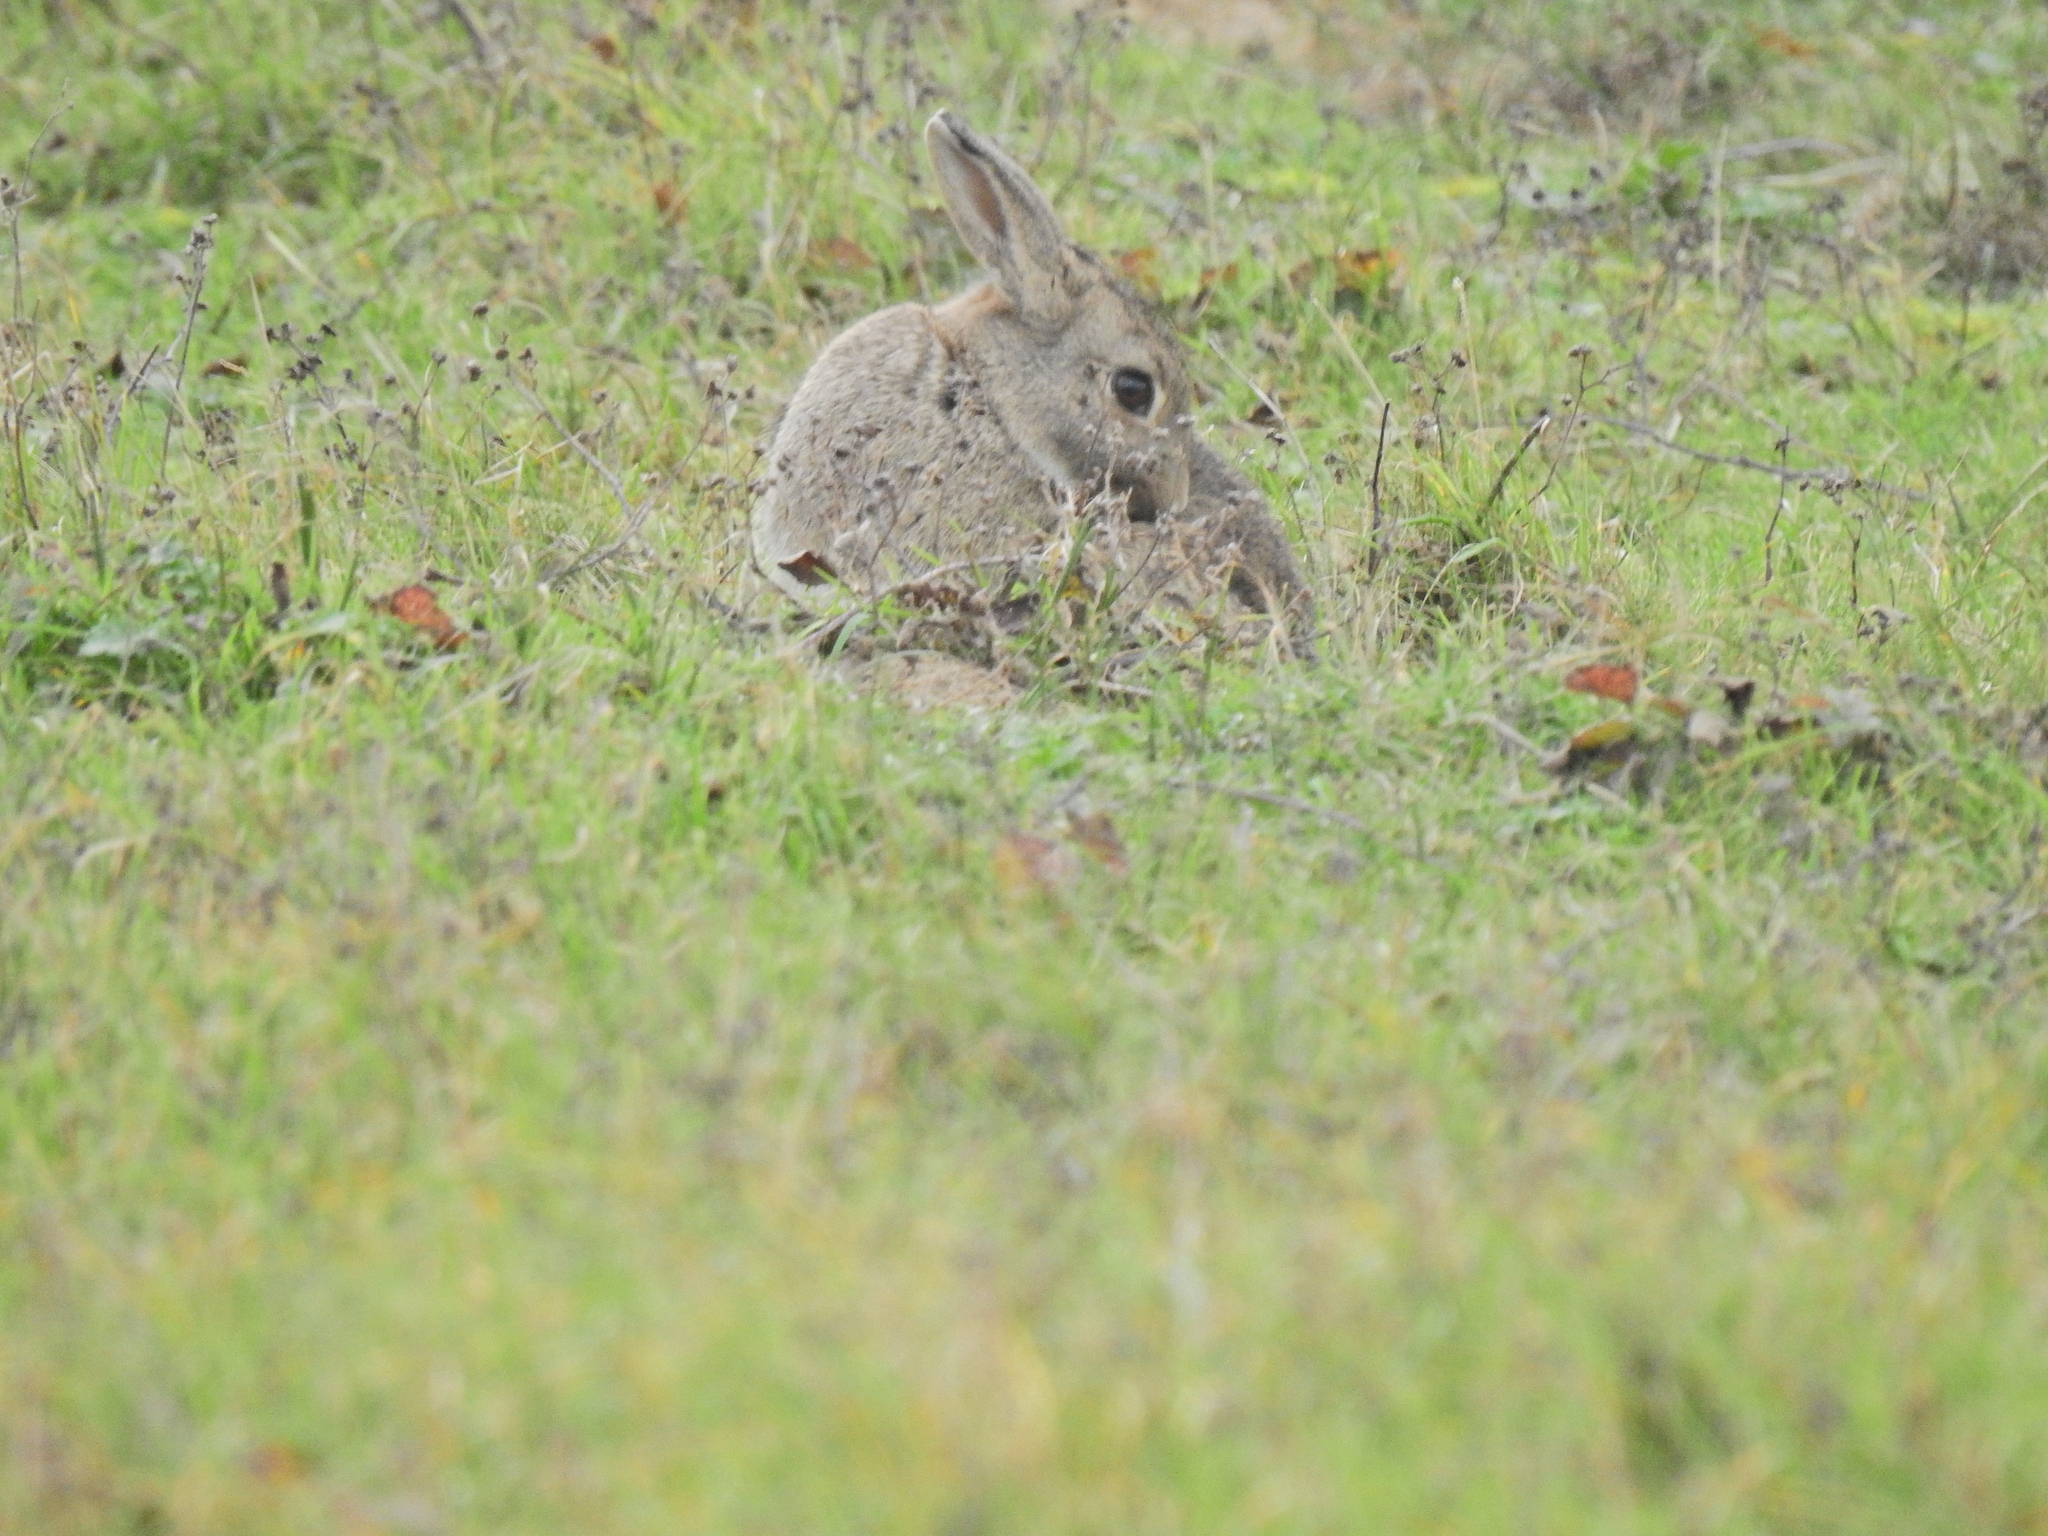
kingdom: Animalia
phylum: Chordata
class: Mammalia
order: Lagomorpha
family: Leporidae
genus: Oryctolagus
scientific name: Oryctolagus cuniculus
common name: European rabbit
